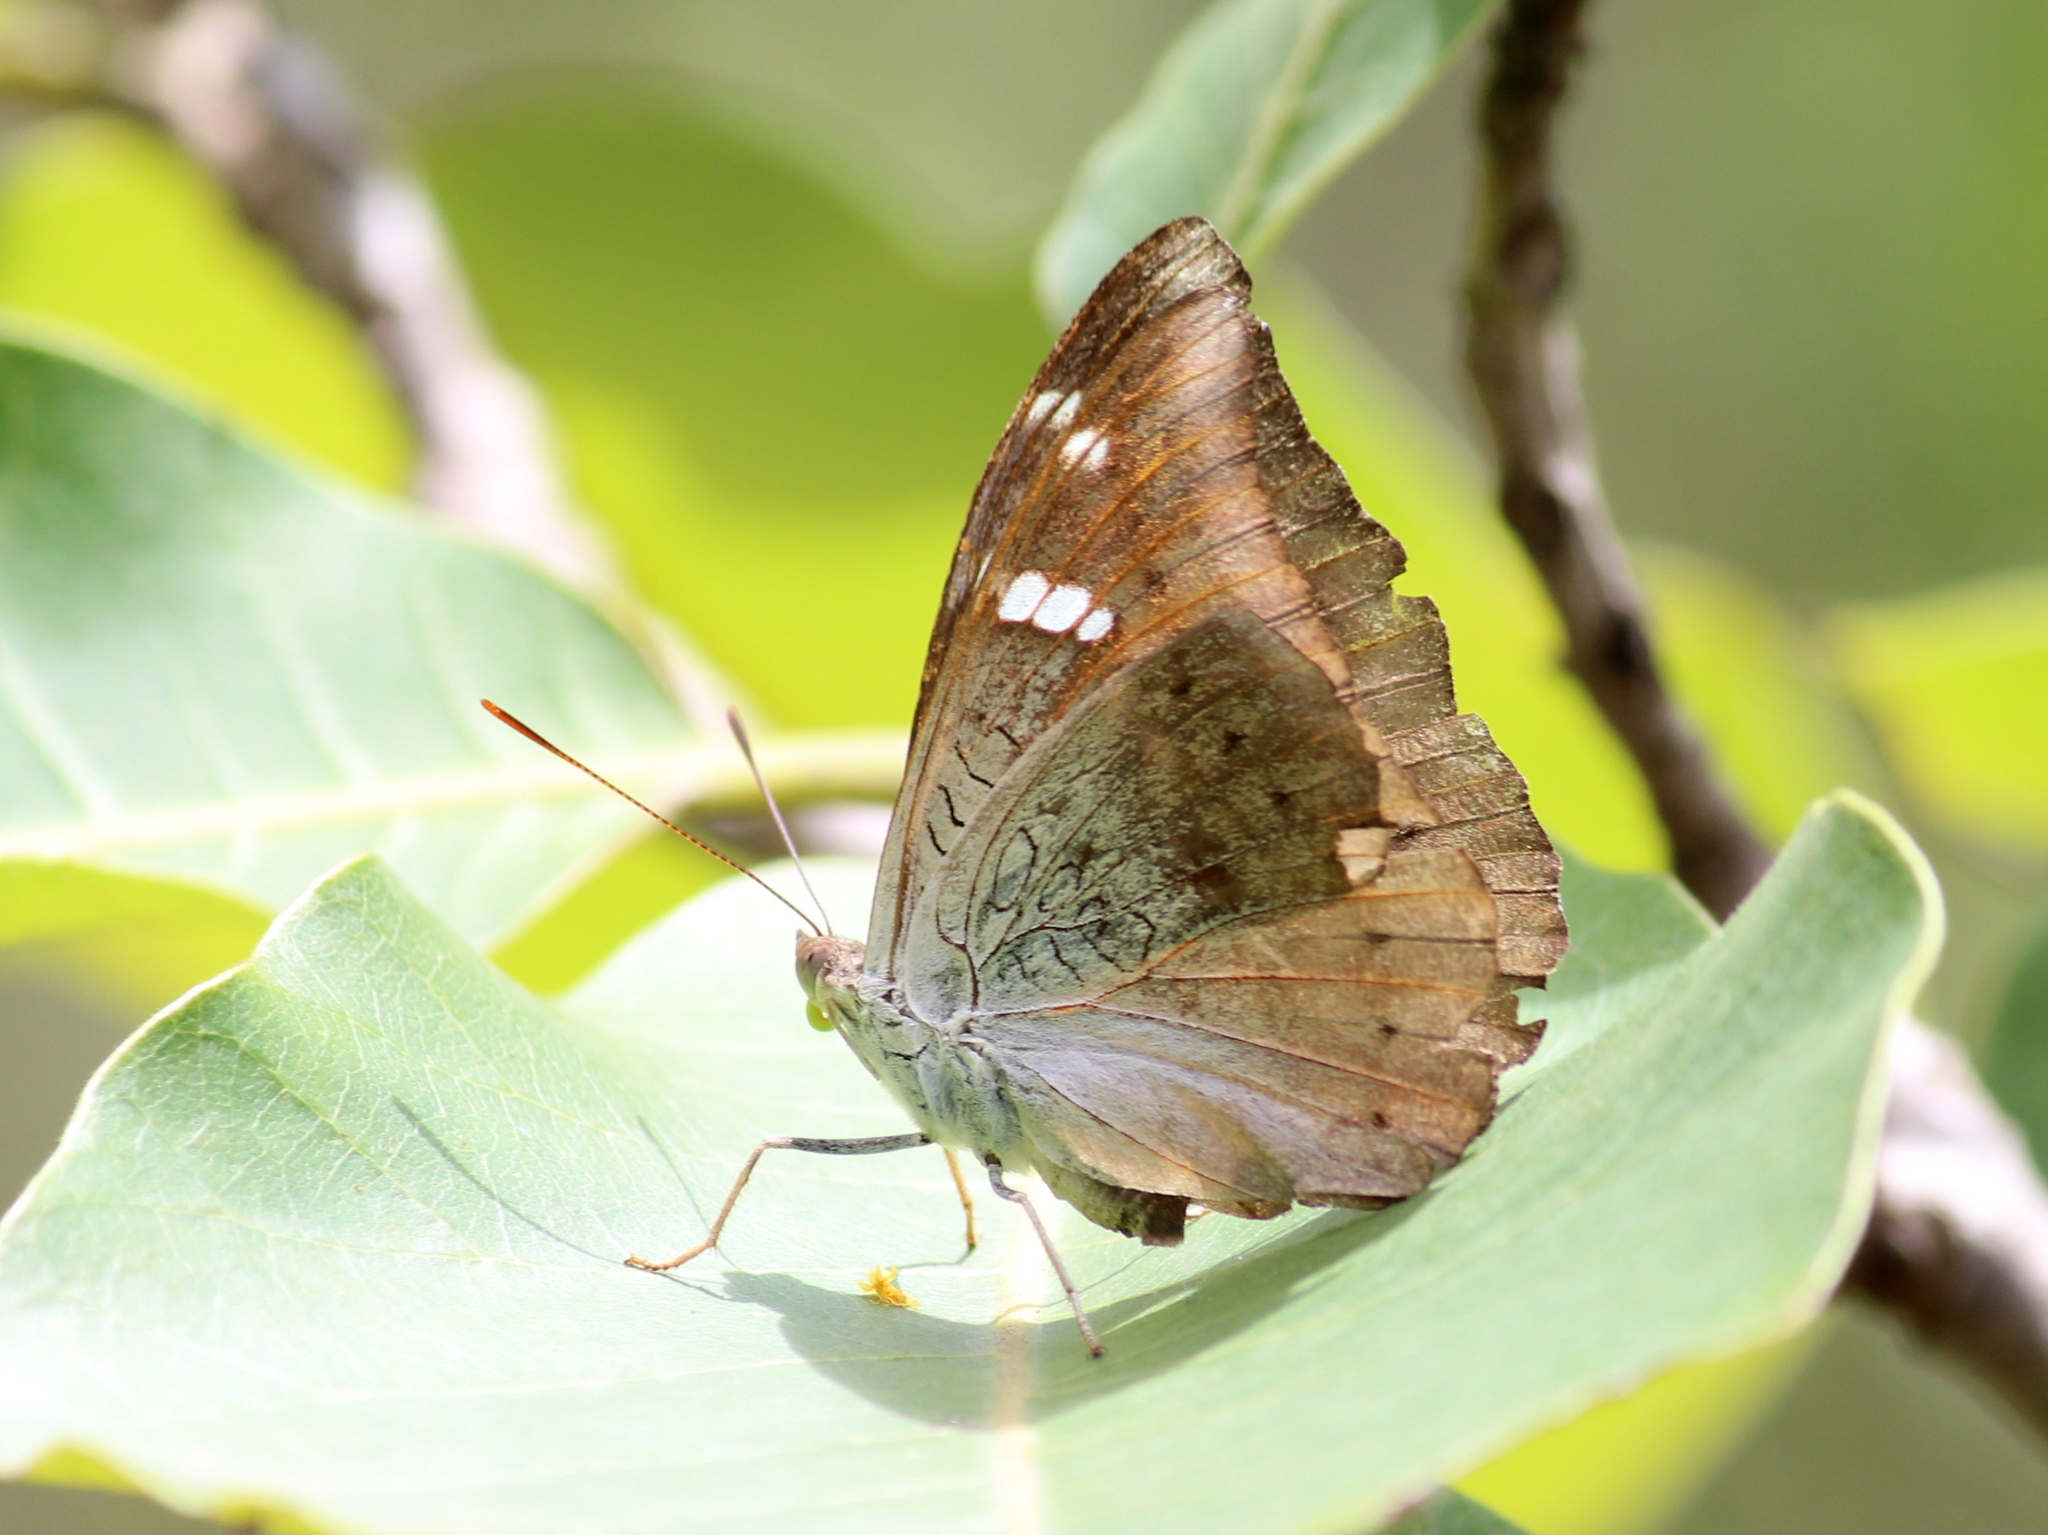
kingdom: Animalia
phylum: Arthropoda
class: Insecta
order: Lepidoptera
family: Nymphalidae
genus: Euthalia
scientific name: Euthalia aconthea
